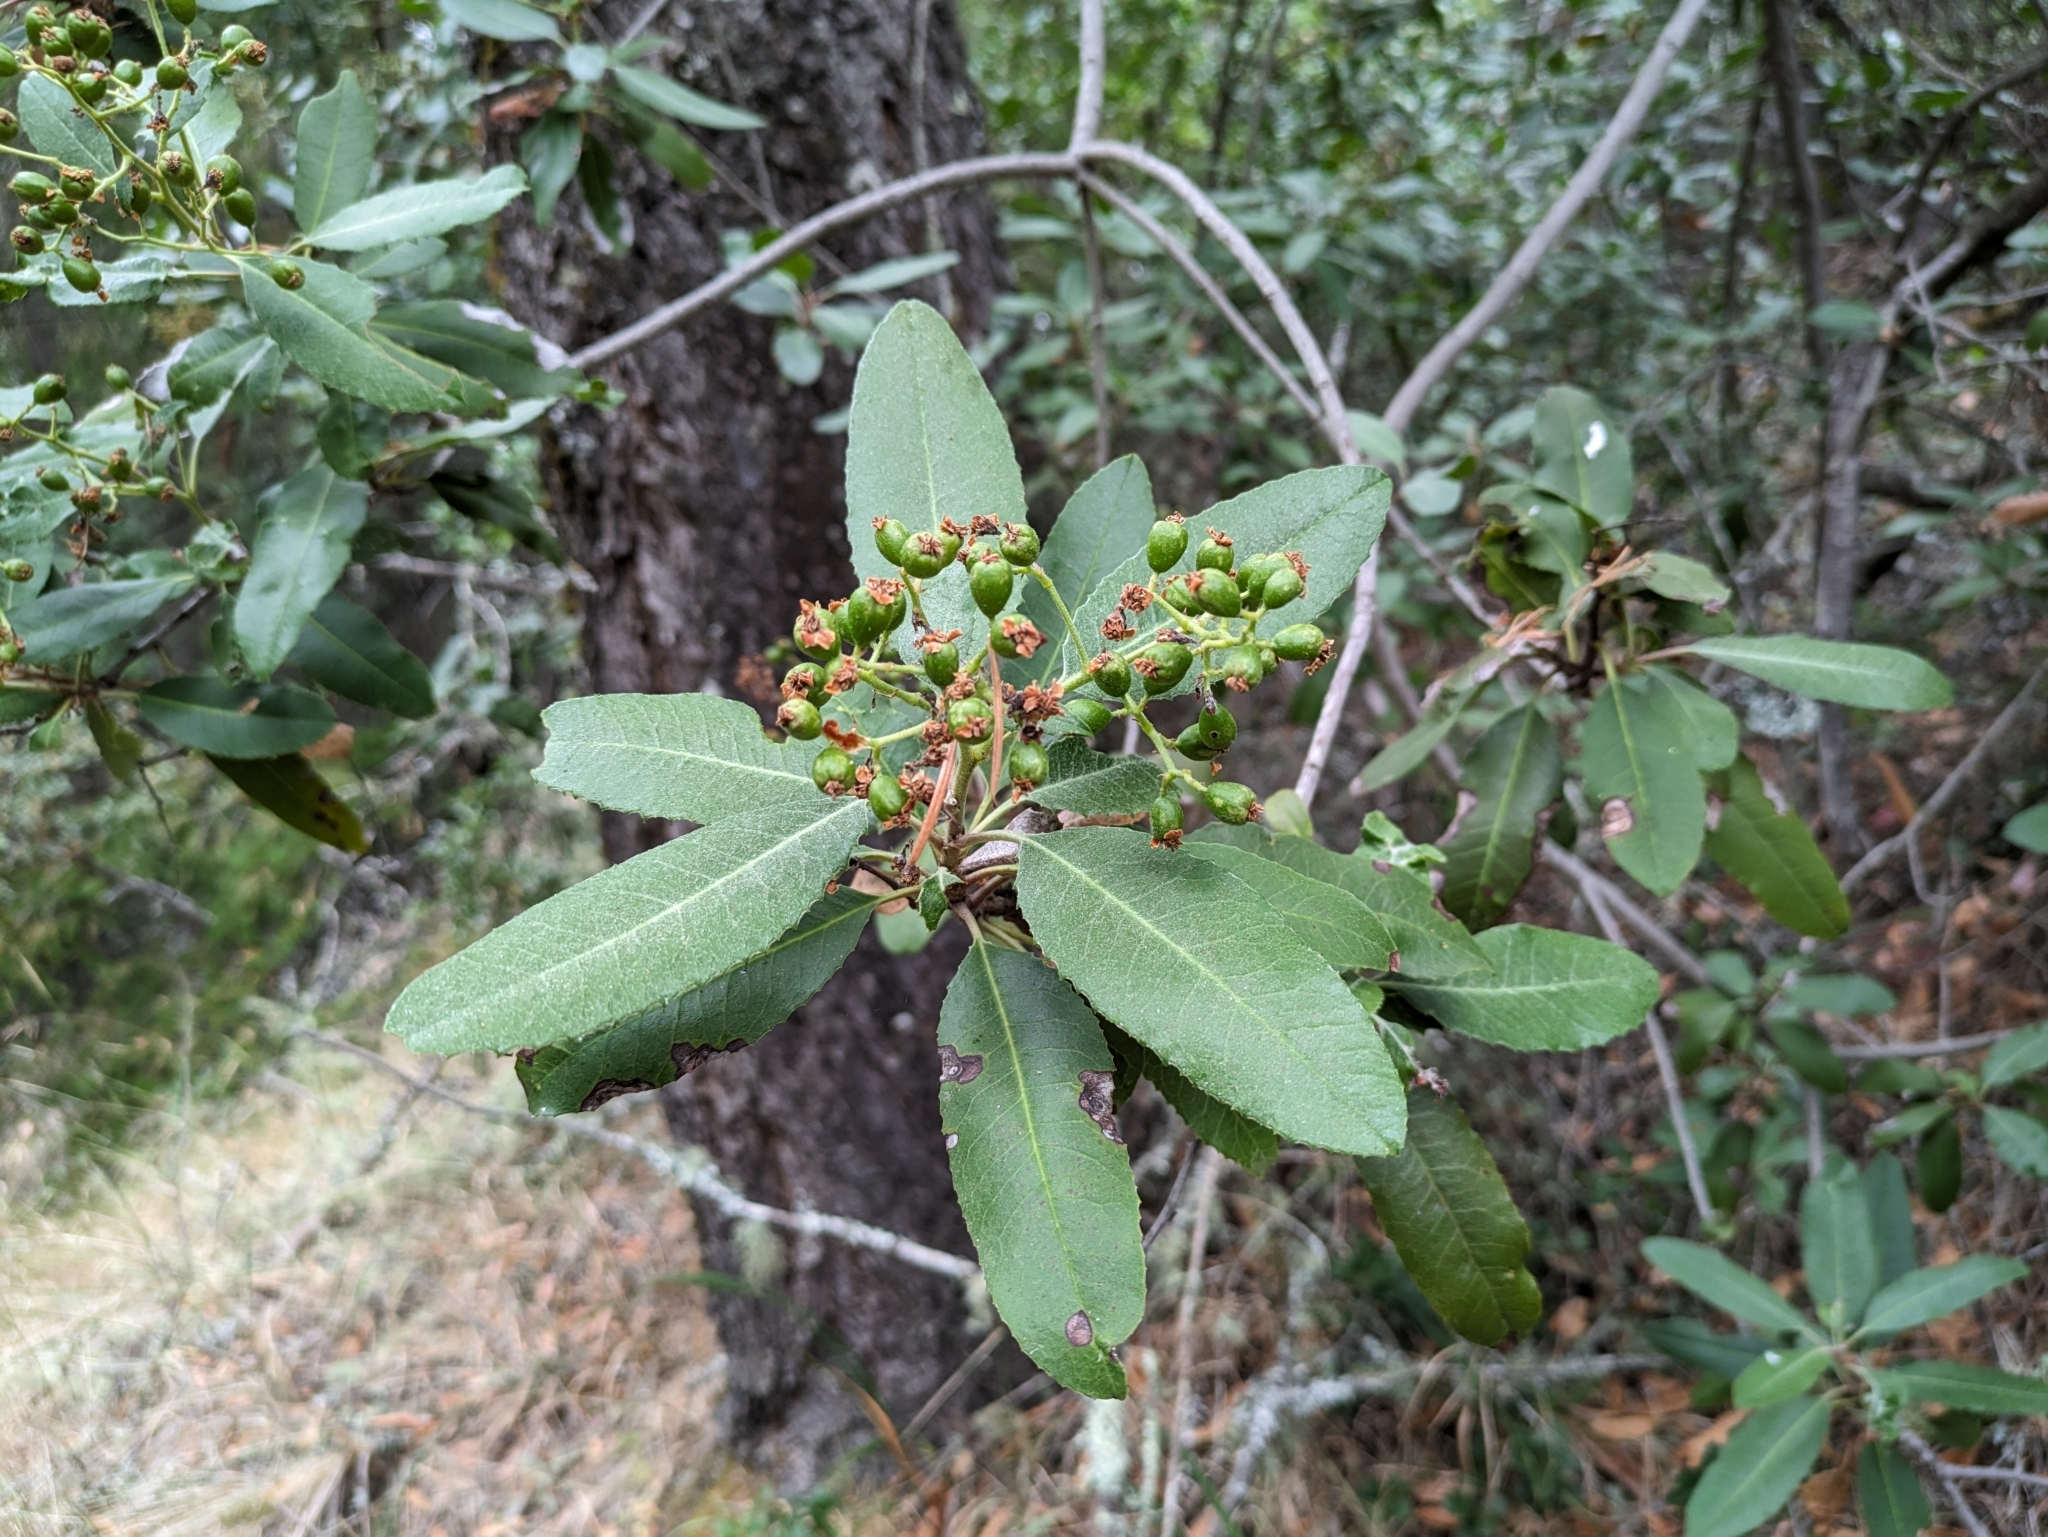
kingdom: Plantae
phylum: Tracheophyta
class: Magnoliopsida
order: Rosales
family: Rosaceae
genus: Heteromeles
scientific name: Heteromeles arbutifolia
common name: California-holly
